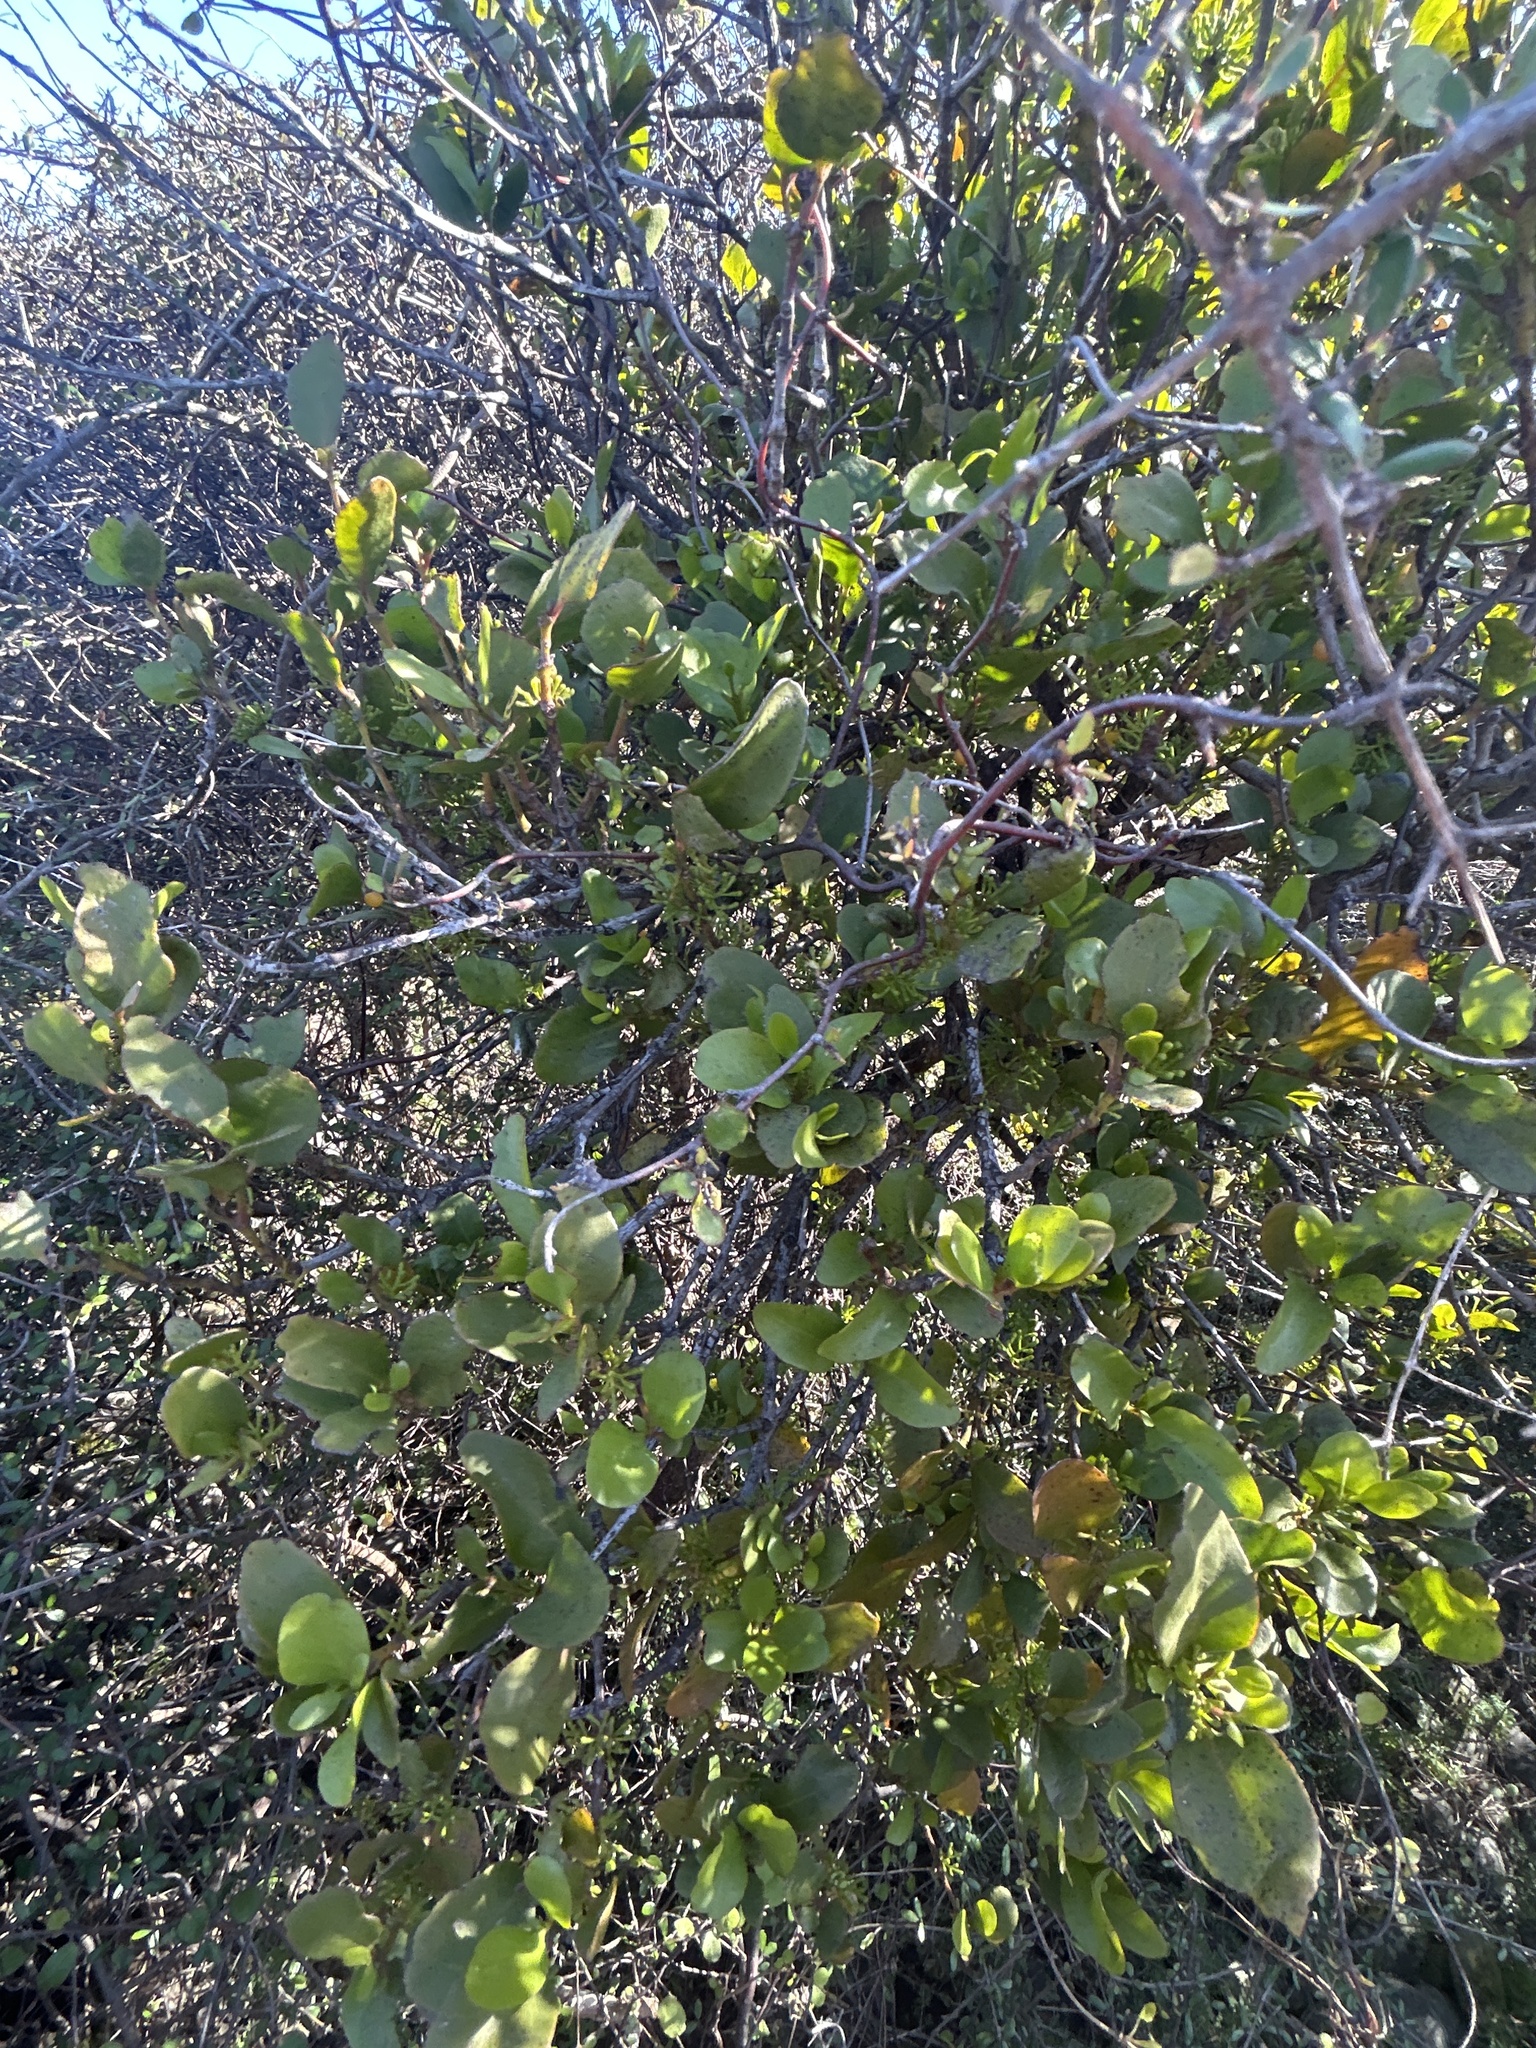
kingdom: Plantae
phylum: Tracheophyta
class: Magnoliopsida
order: Santalales
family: Loranthaceae
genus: Ileostylus
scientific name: Ileostylus micranthus
